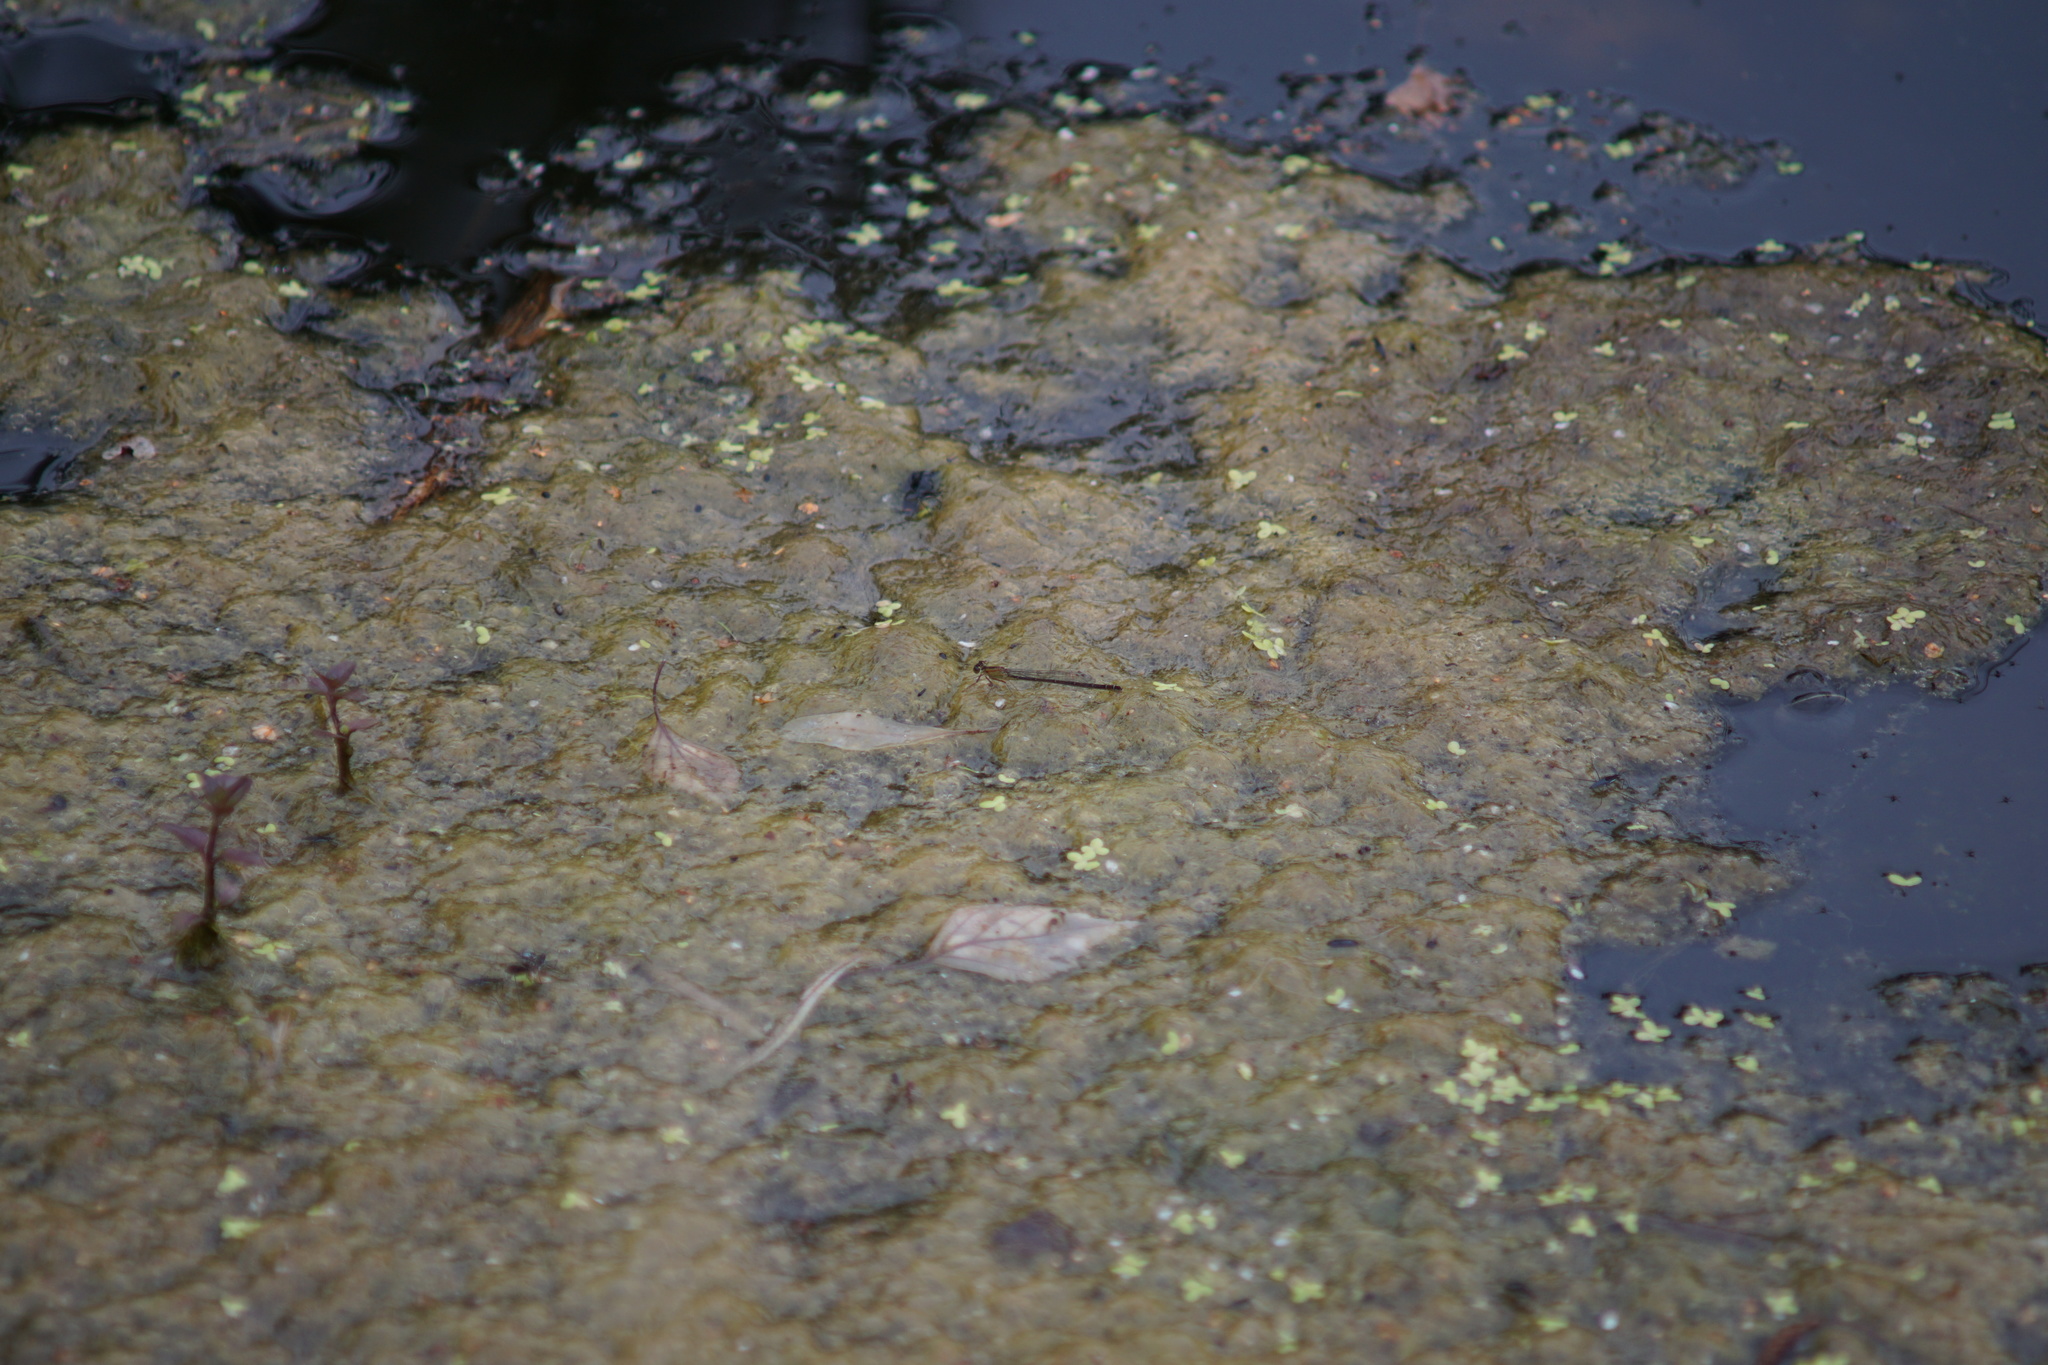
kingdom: Animalia
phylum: Arthropoda
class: Insecta
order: Odonata
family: Coenagrionidae
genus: Ischnura
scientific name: Ischnura elegans
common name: Blue-tailed damselfly
